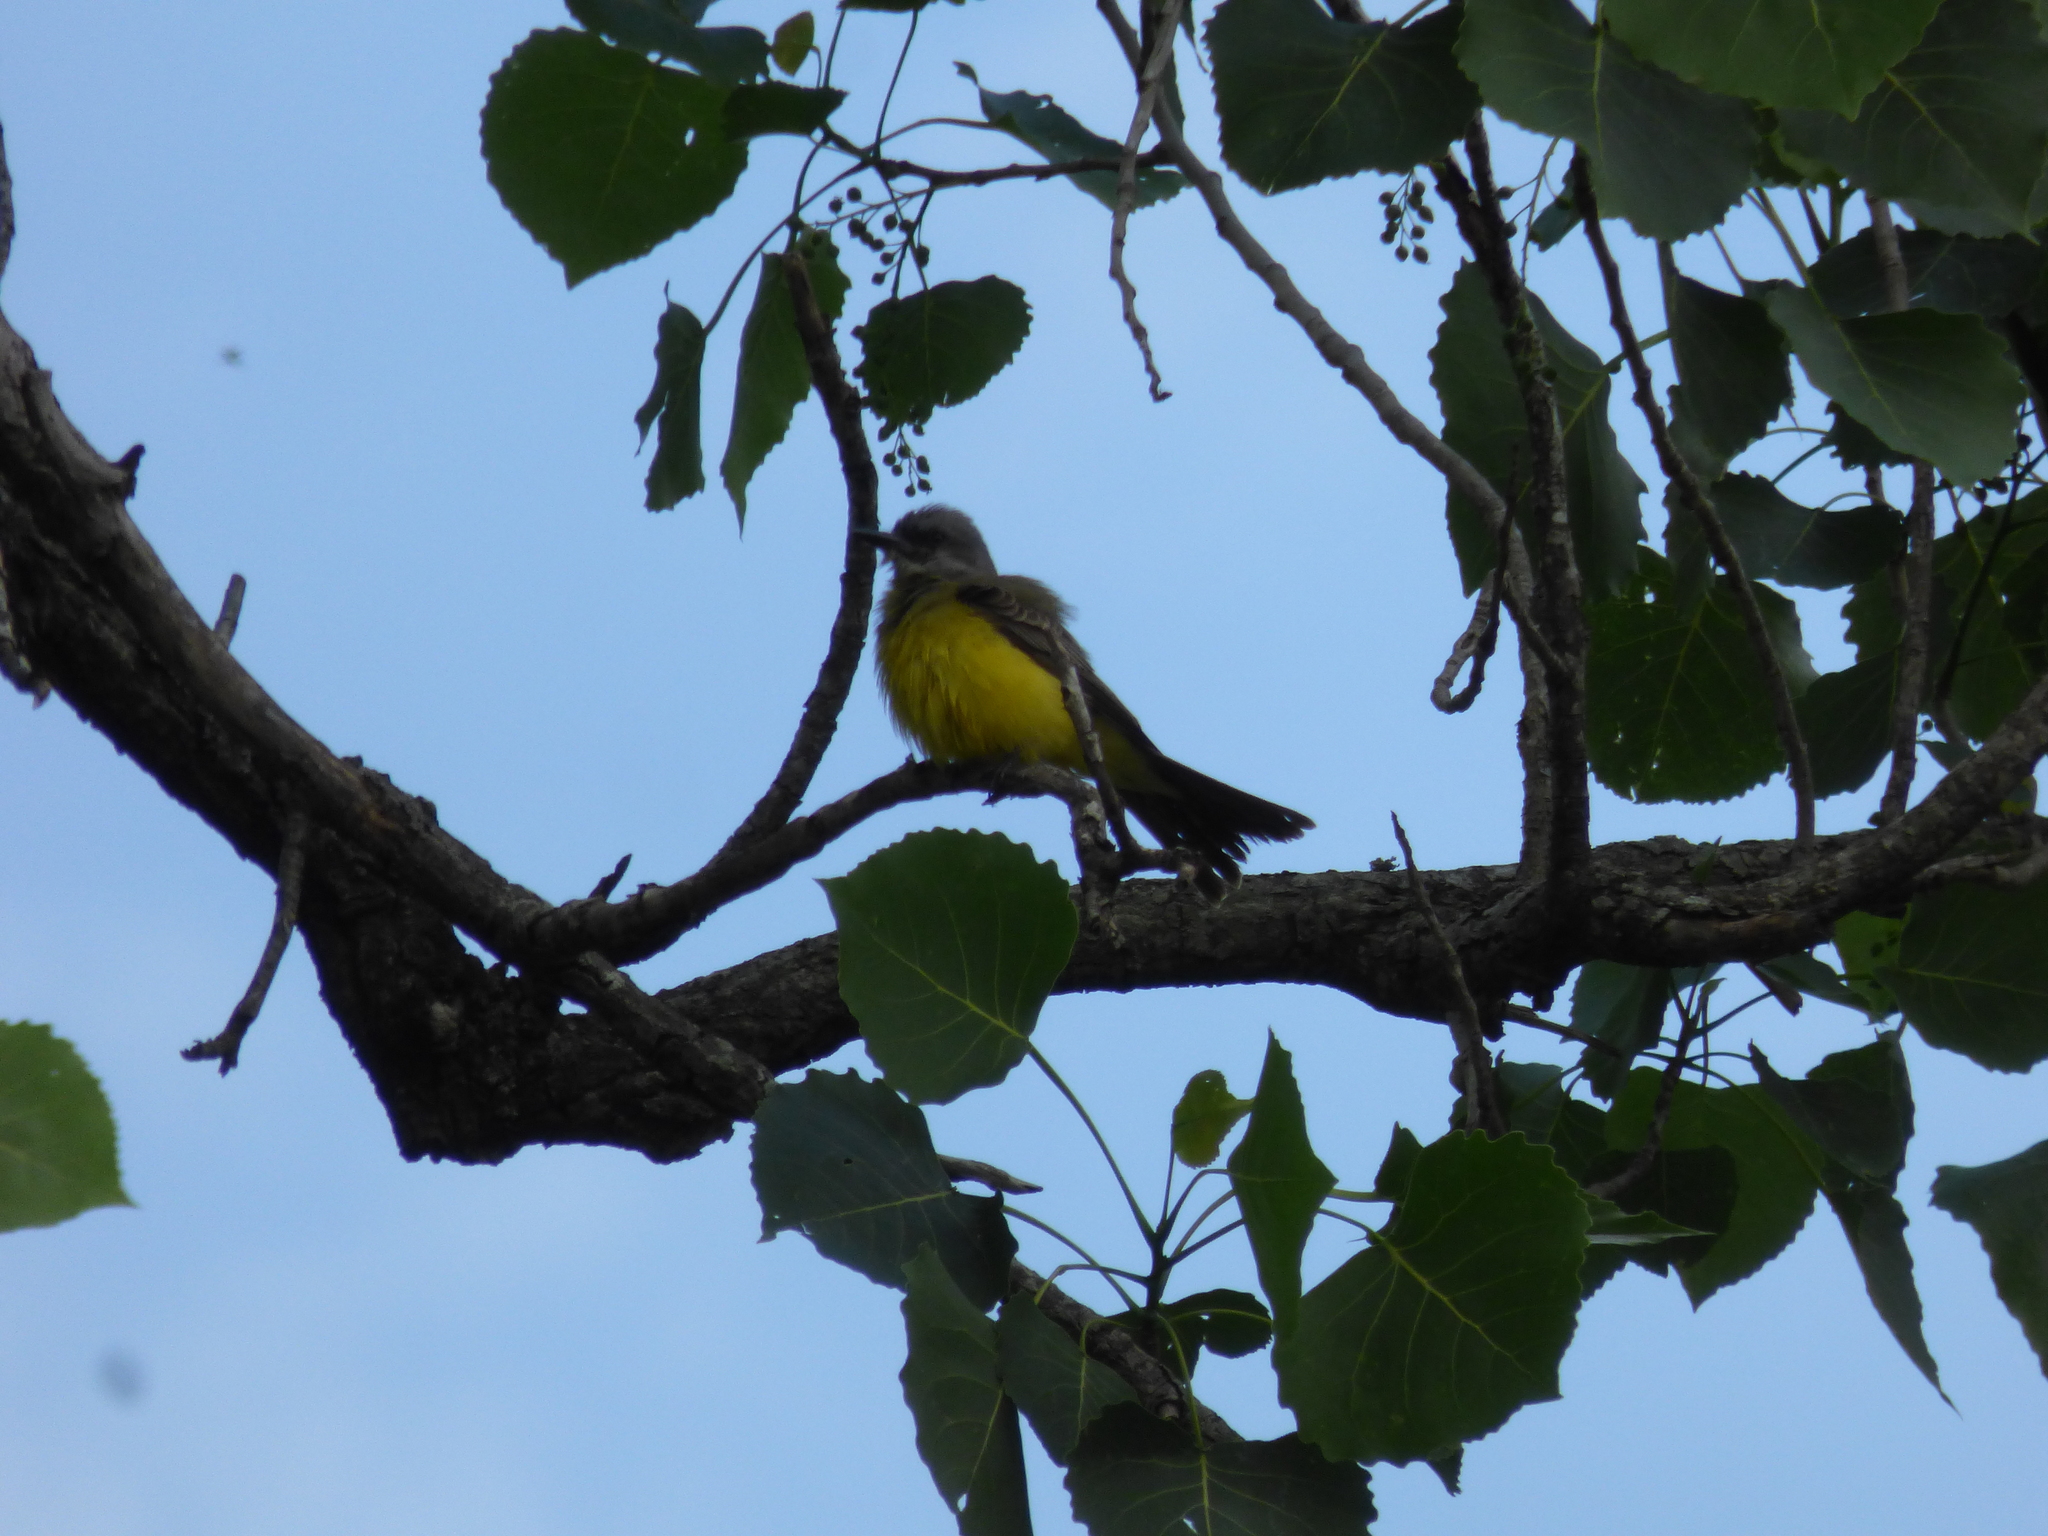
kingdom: Animalia
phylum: Chordata
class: Aves
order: Passeriformes
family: Tyrannidae
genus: Tyrannus
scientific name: Tyrannus melancholicus
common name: Tropical kingbird
